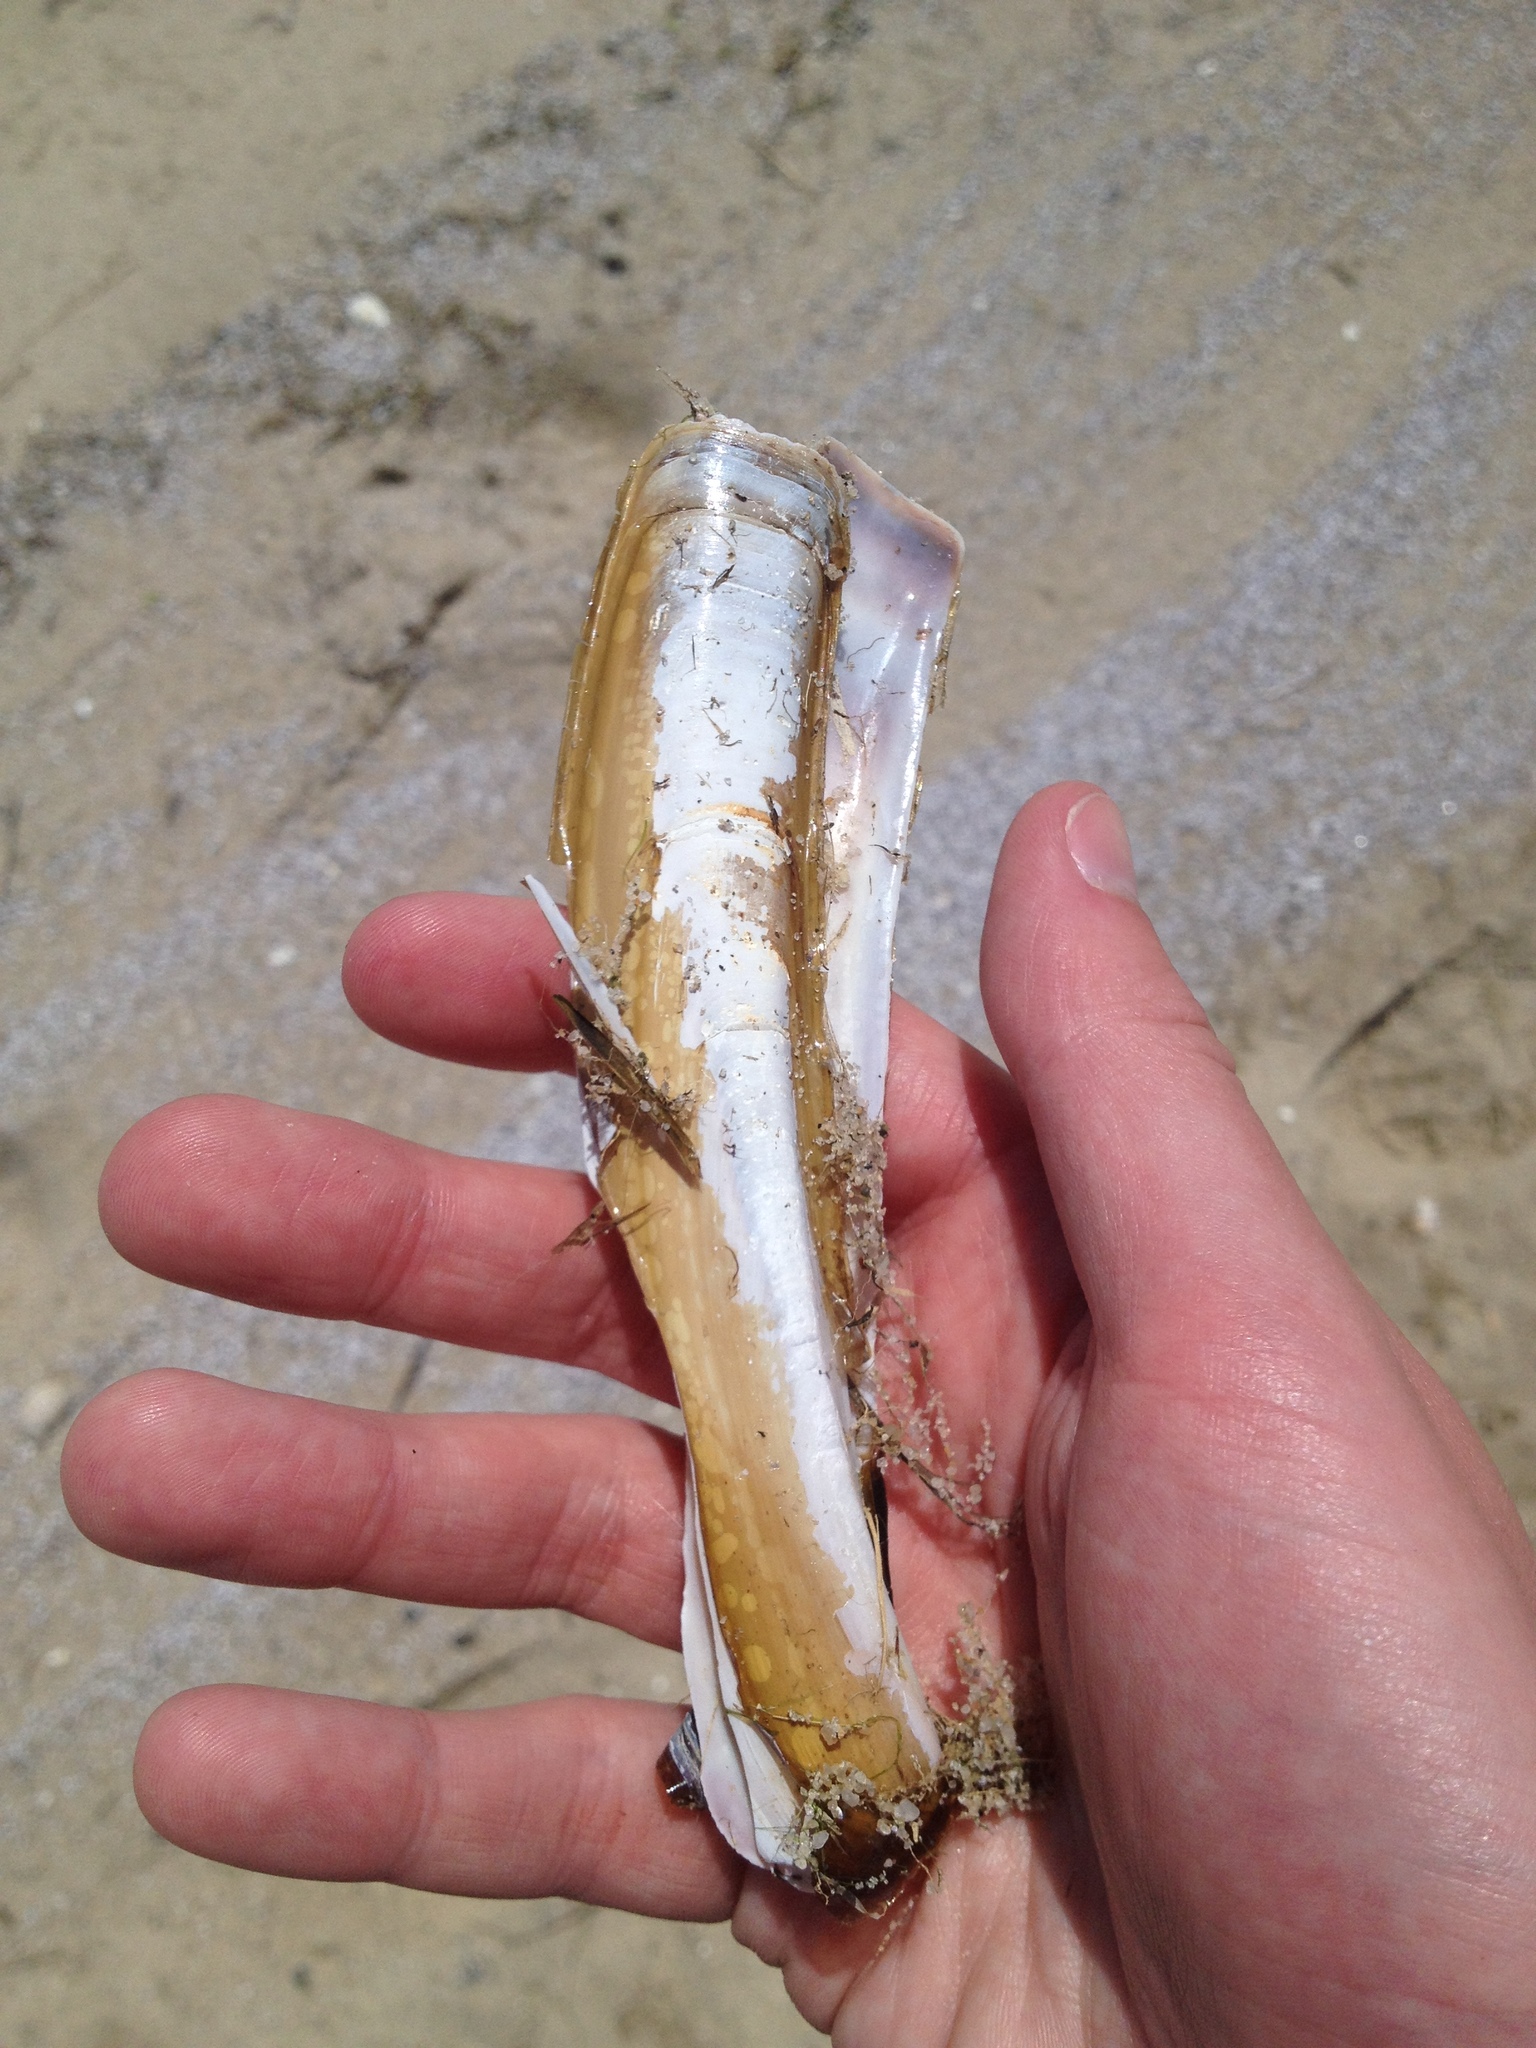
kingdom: Animalia
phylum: Mollusca
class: Bivalvia
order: Adapedonta
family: Pharidae
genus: Ensis
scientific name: Ensis leei
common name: American jack knife clam
